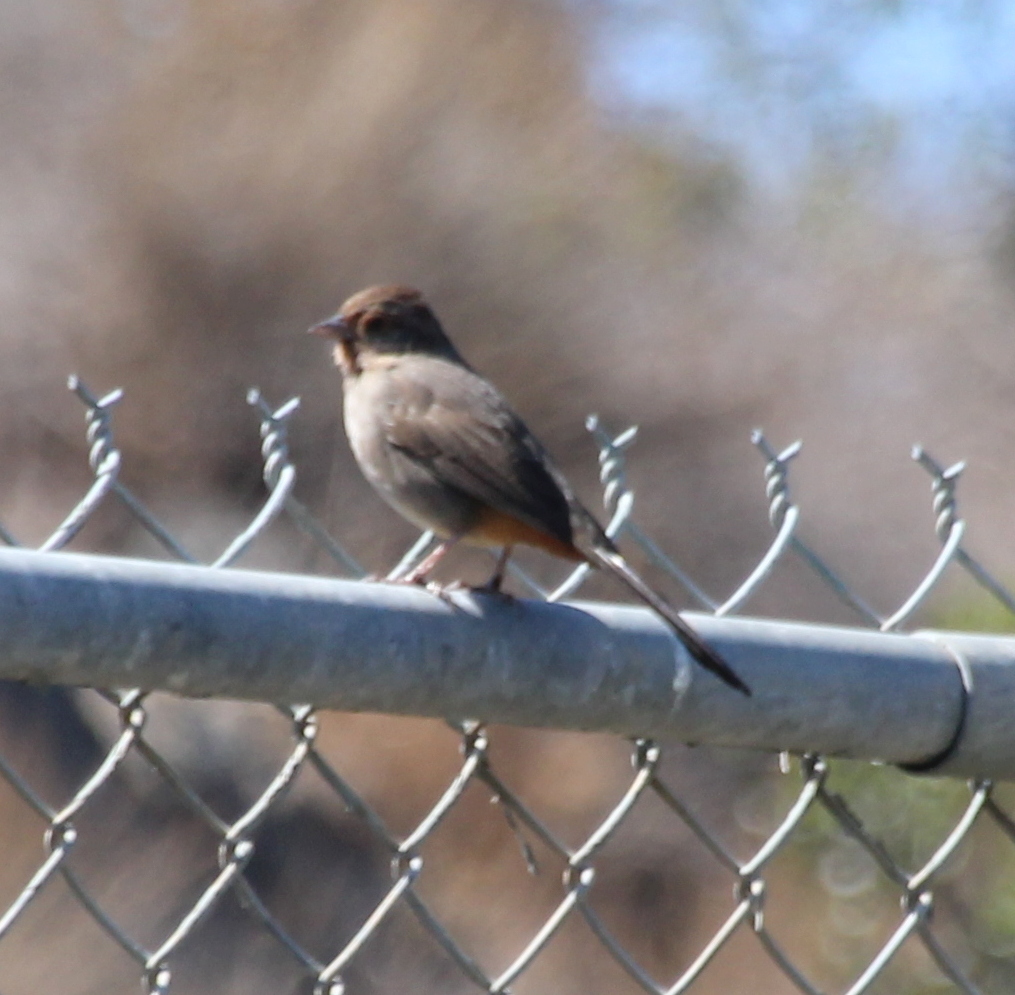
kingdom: Animalia
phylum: Chordata
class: Aves
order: Passeriformes
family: Passerellidae
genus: Melozone
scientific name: Melozone crissalis
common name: California towhee
